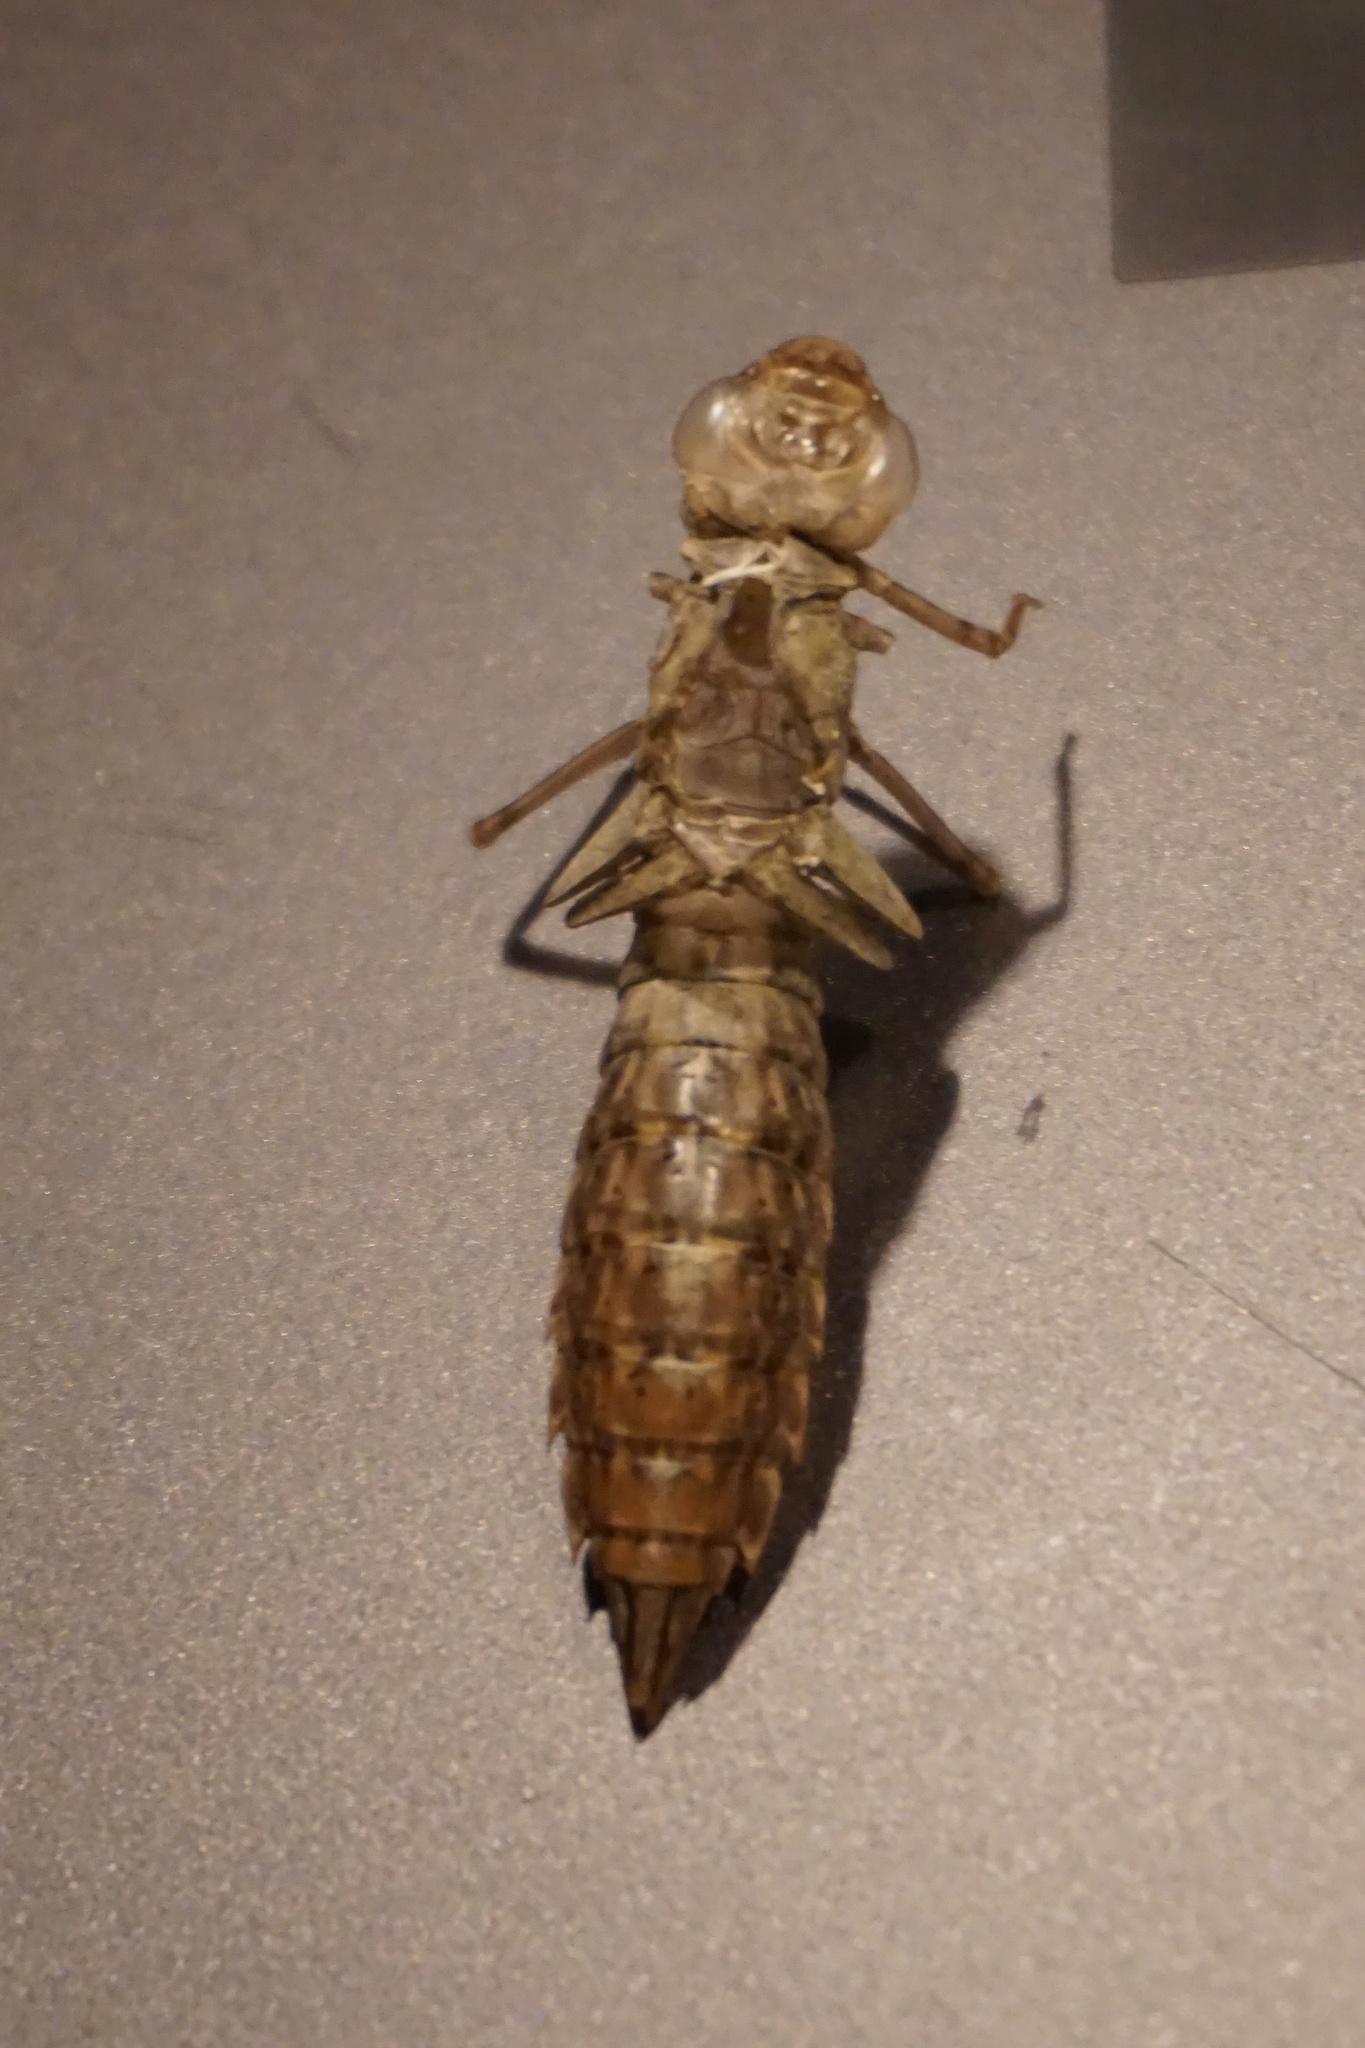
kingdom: Animalia
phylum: Arthropoda
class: Insecta
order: Odonata
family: Aeshnidae
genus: Anax
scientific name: Anax imperator
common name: Emperor dragonfly
